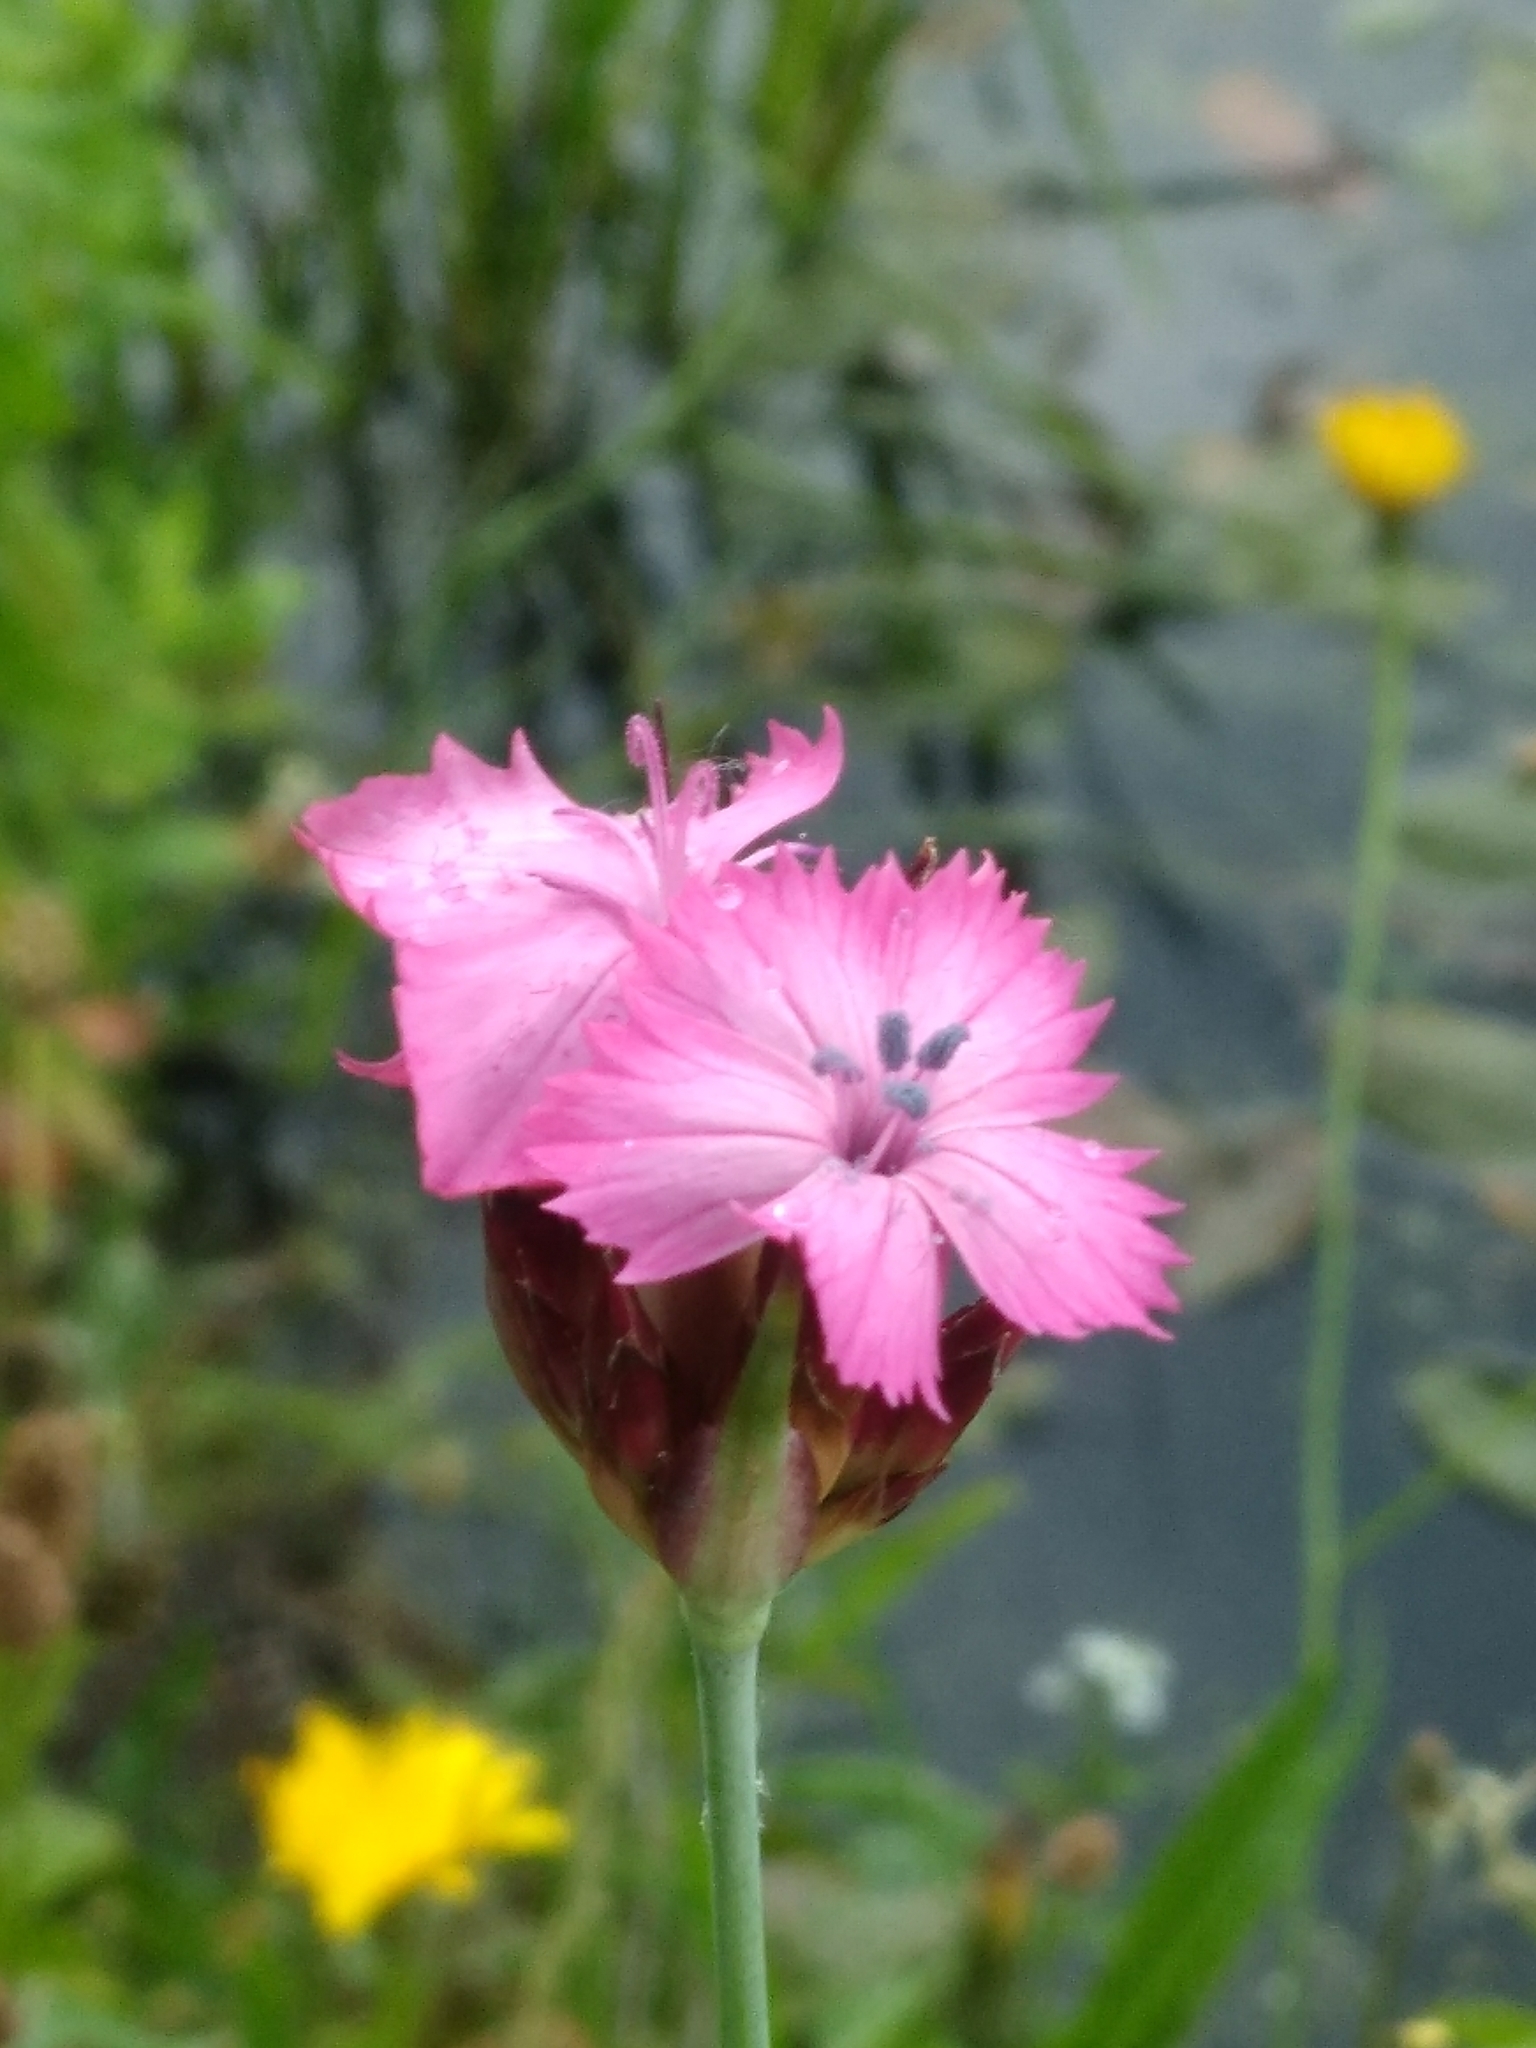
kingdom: Plantae
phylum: Tracheophyta
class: Magnoliopsida
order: Caryophyllales
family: Caryophyllaceae
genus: Dianthus
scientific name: Dianthus carthusianorum
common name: Carthusian pink
